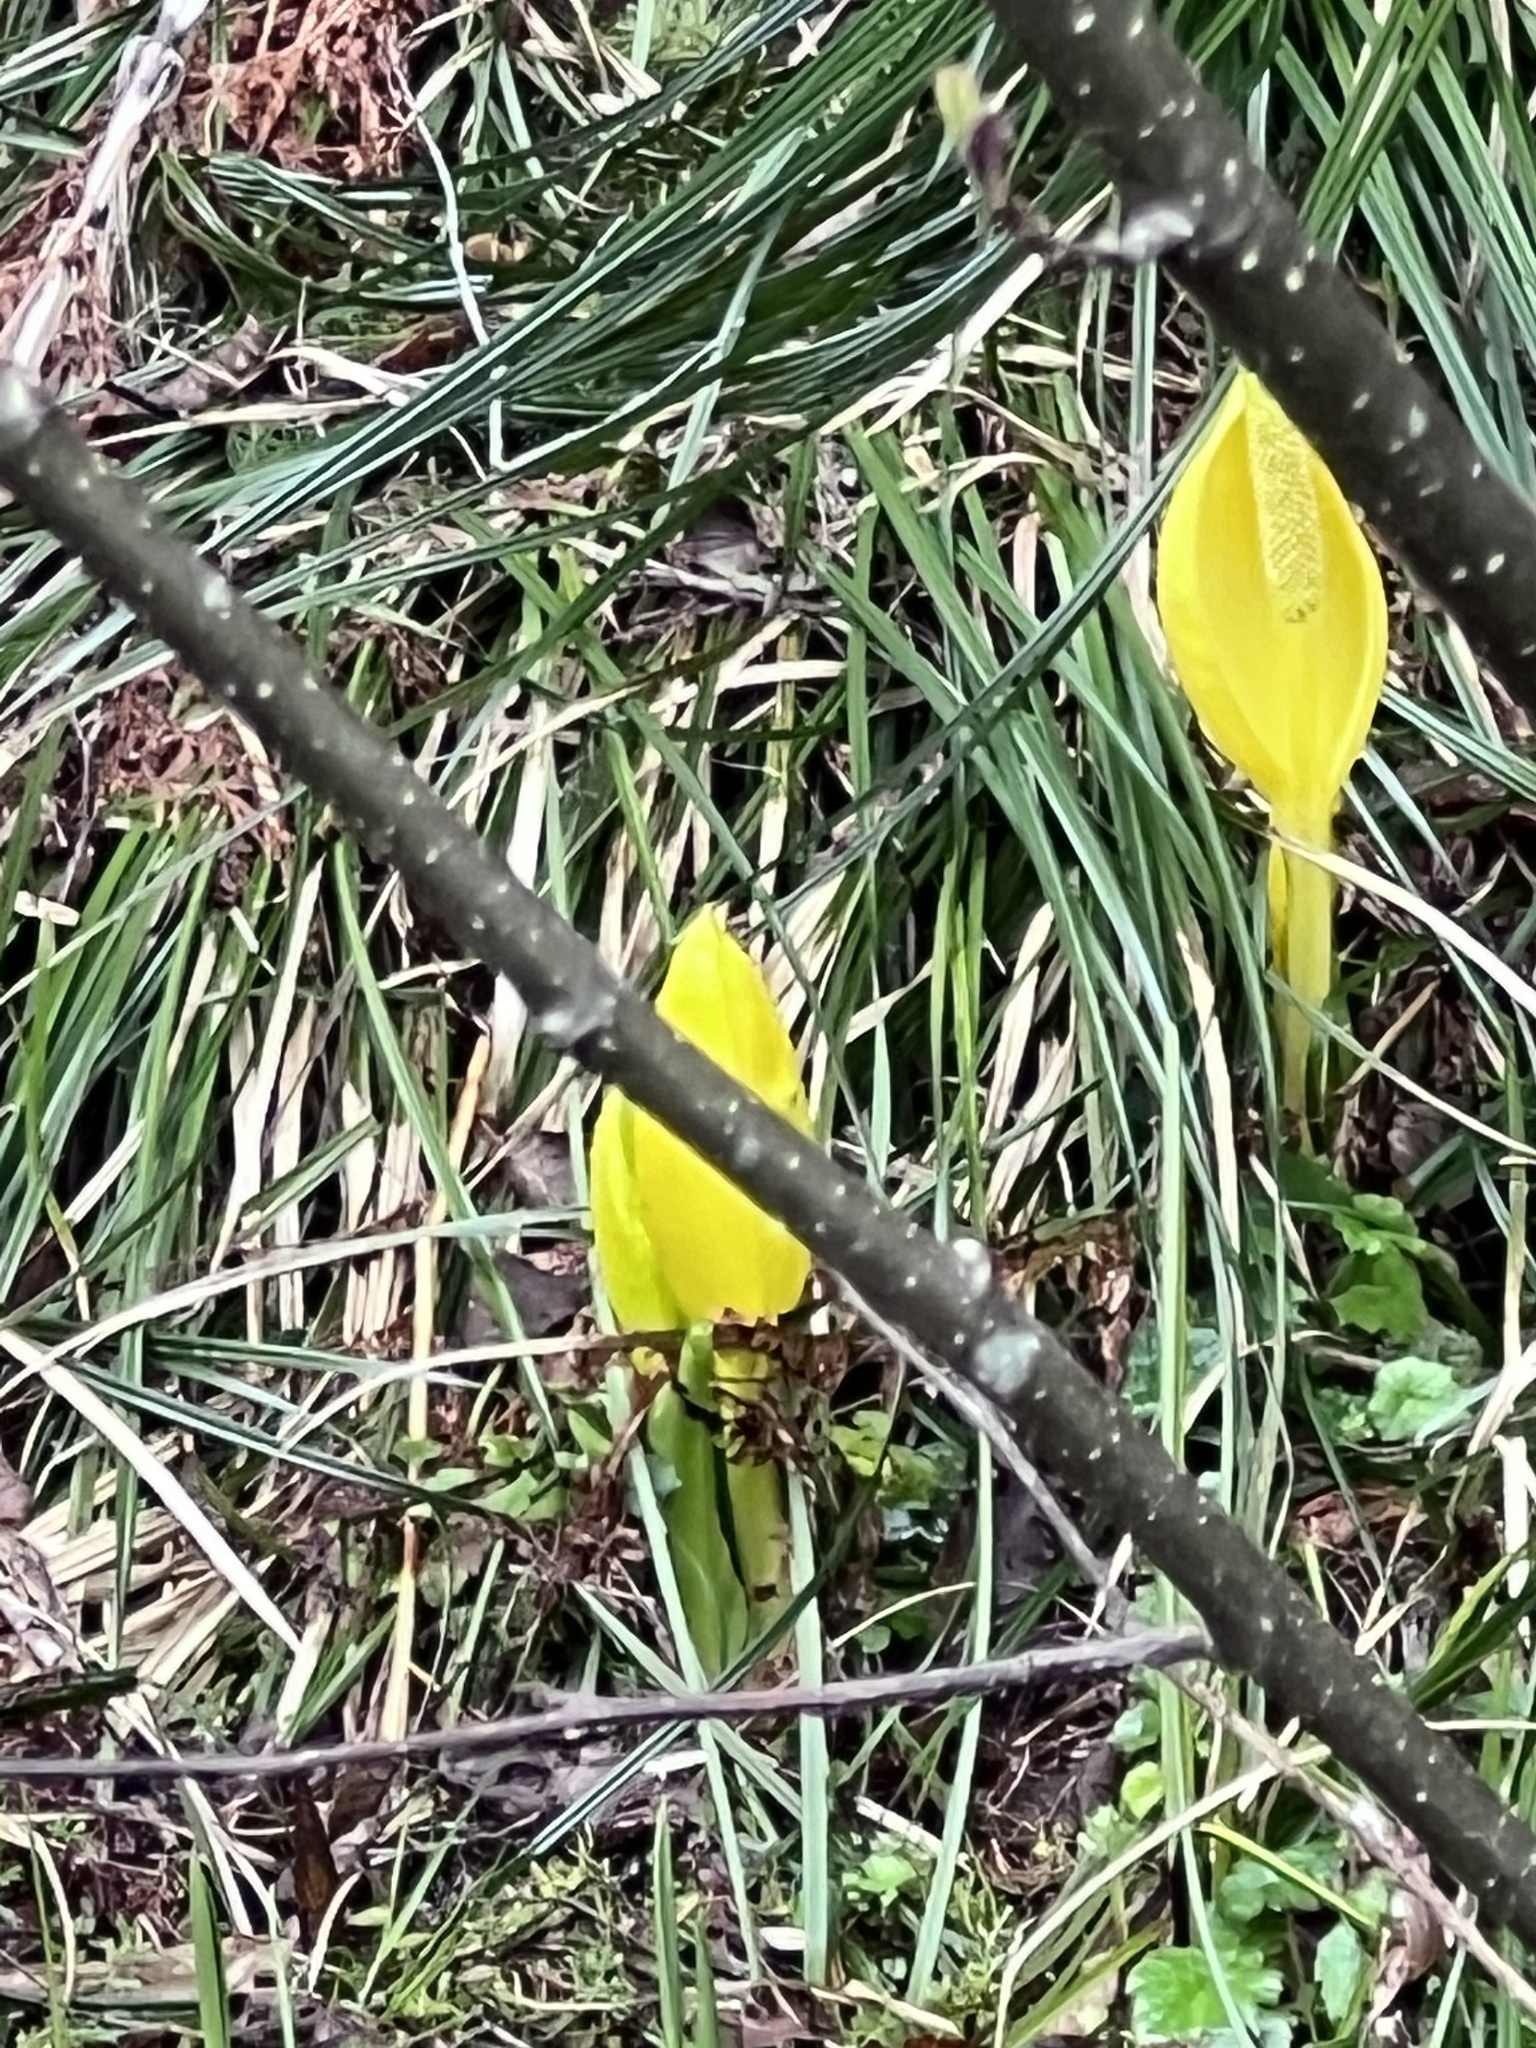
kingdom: Plantae
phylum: Tracheophyta
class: Liliopsida
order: Alismatales
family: Araceae
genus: Lysichiton
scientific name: Lysichiton americanus
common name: American skunk cabbage
